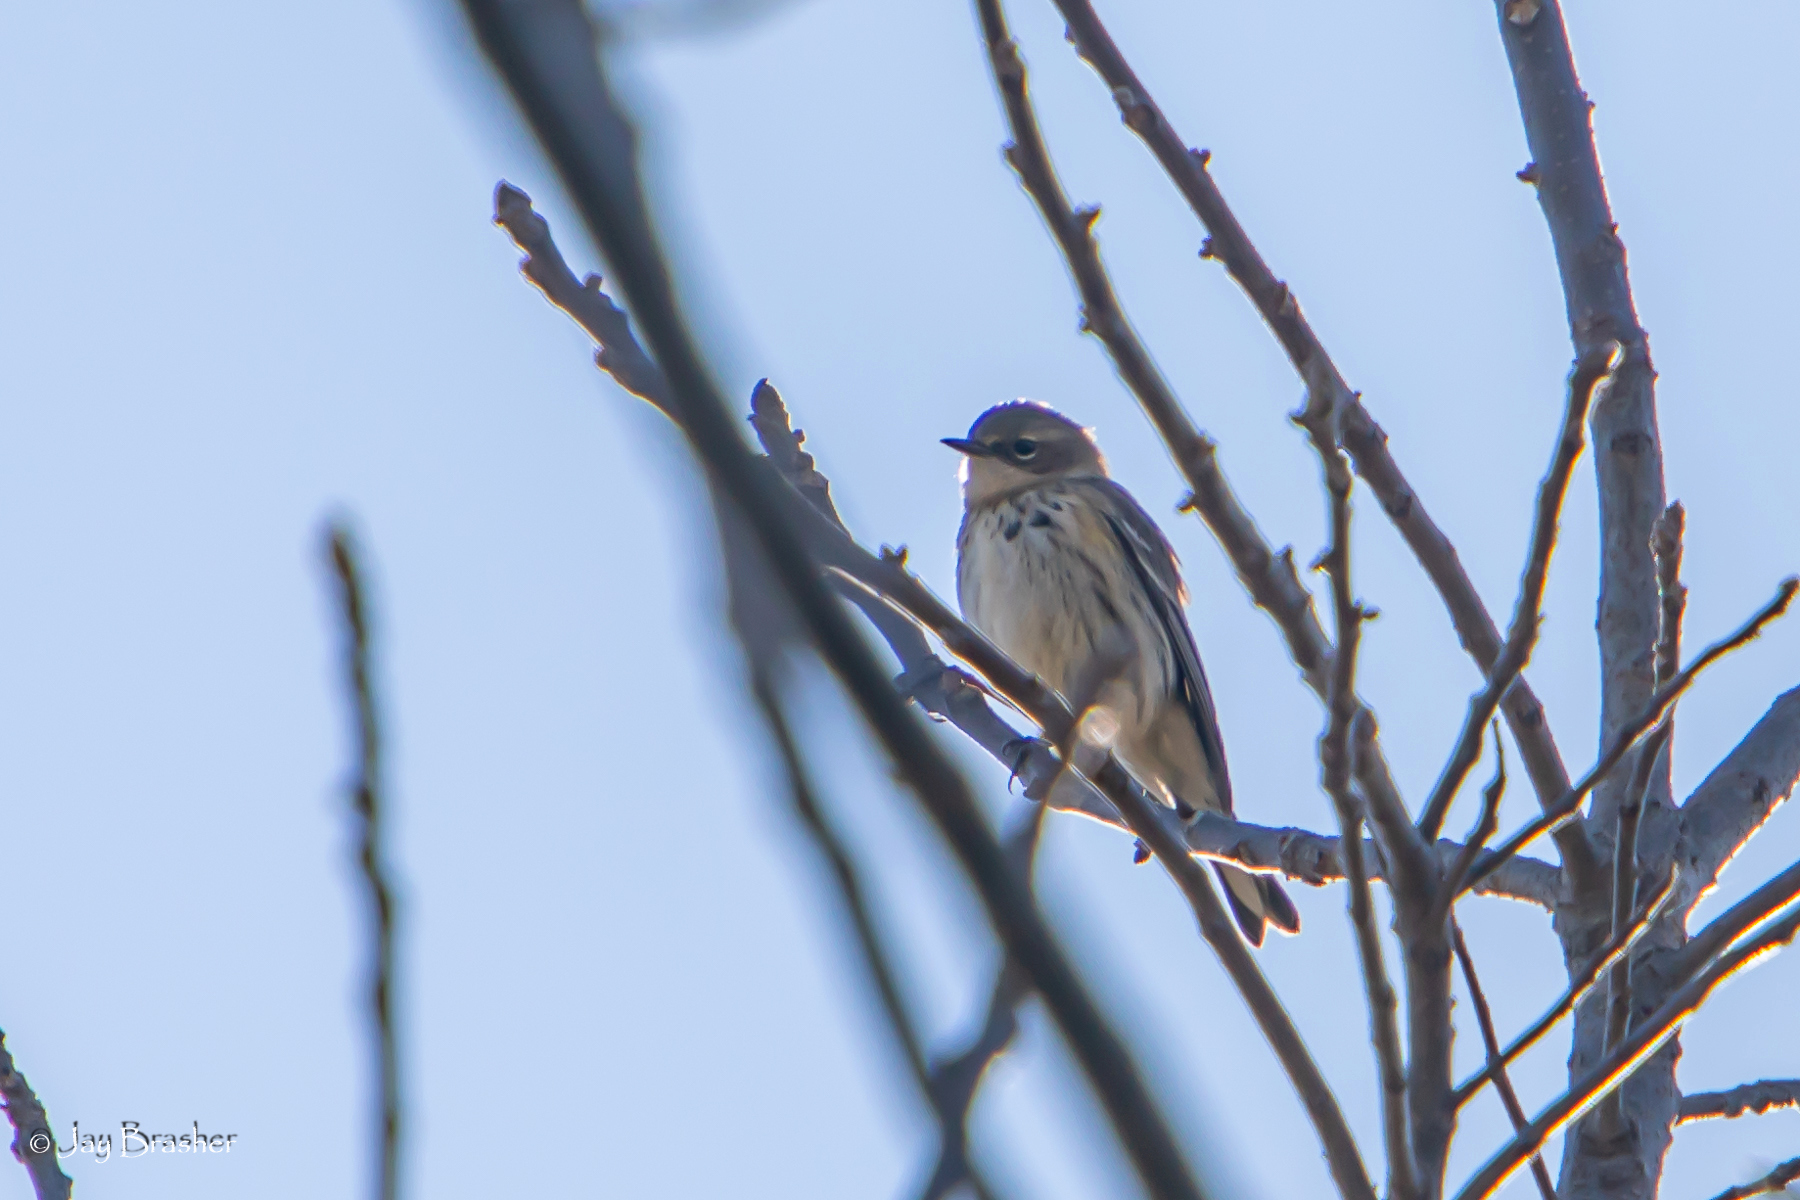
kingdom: Animalia
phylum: Chordata
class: Aves
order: Passeriformes
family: Parulidae
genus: Setophaga
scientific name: Setophaga coronata
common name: Myrtle warbler
